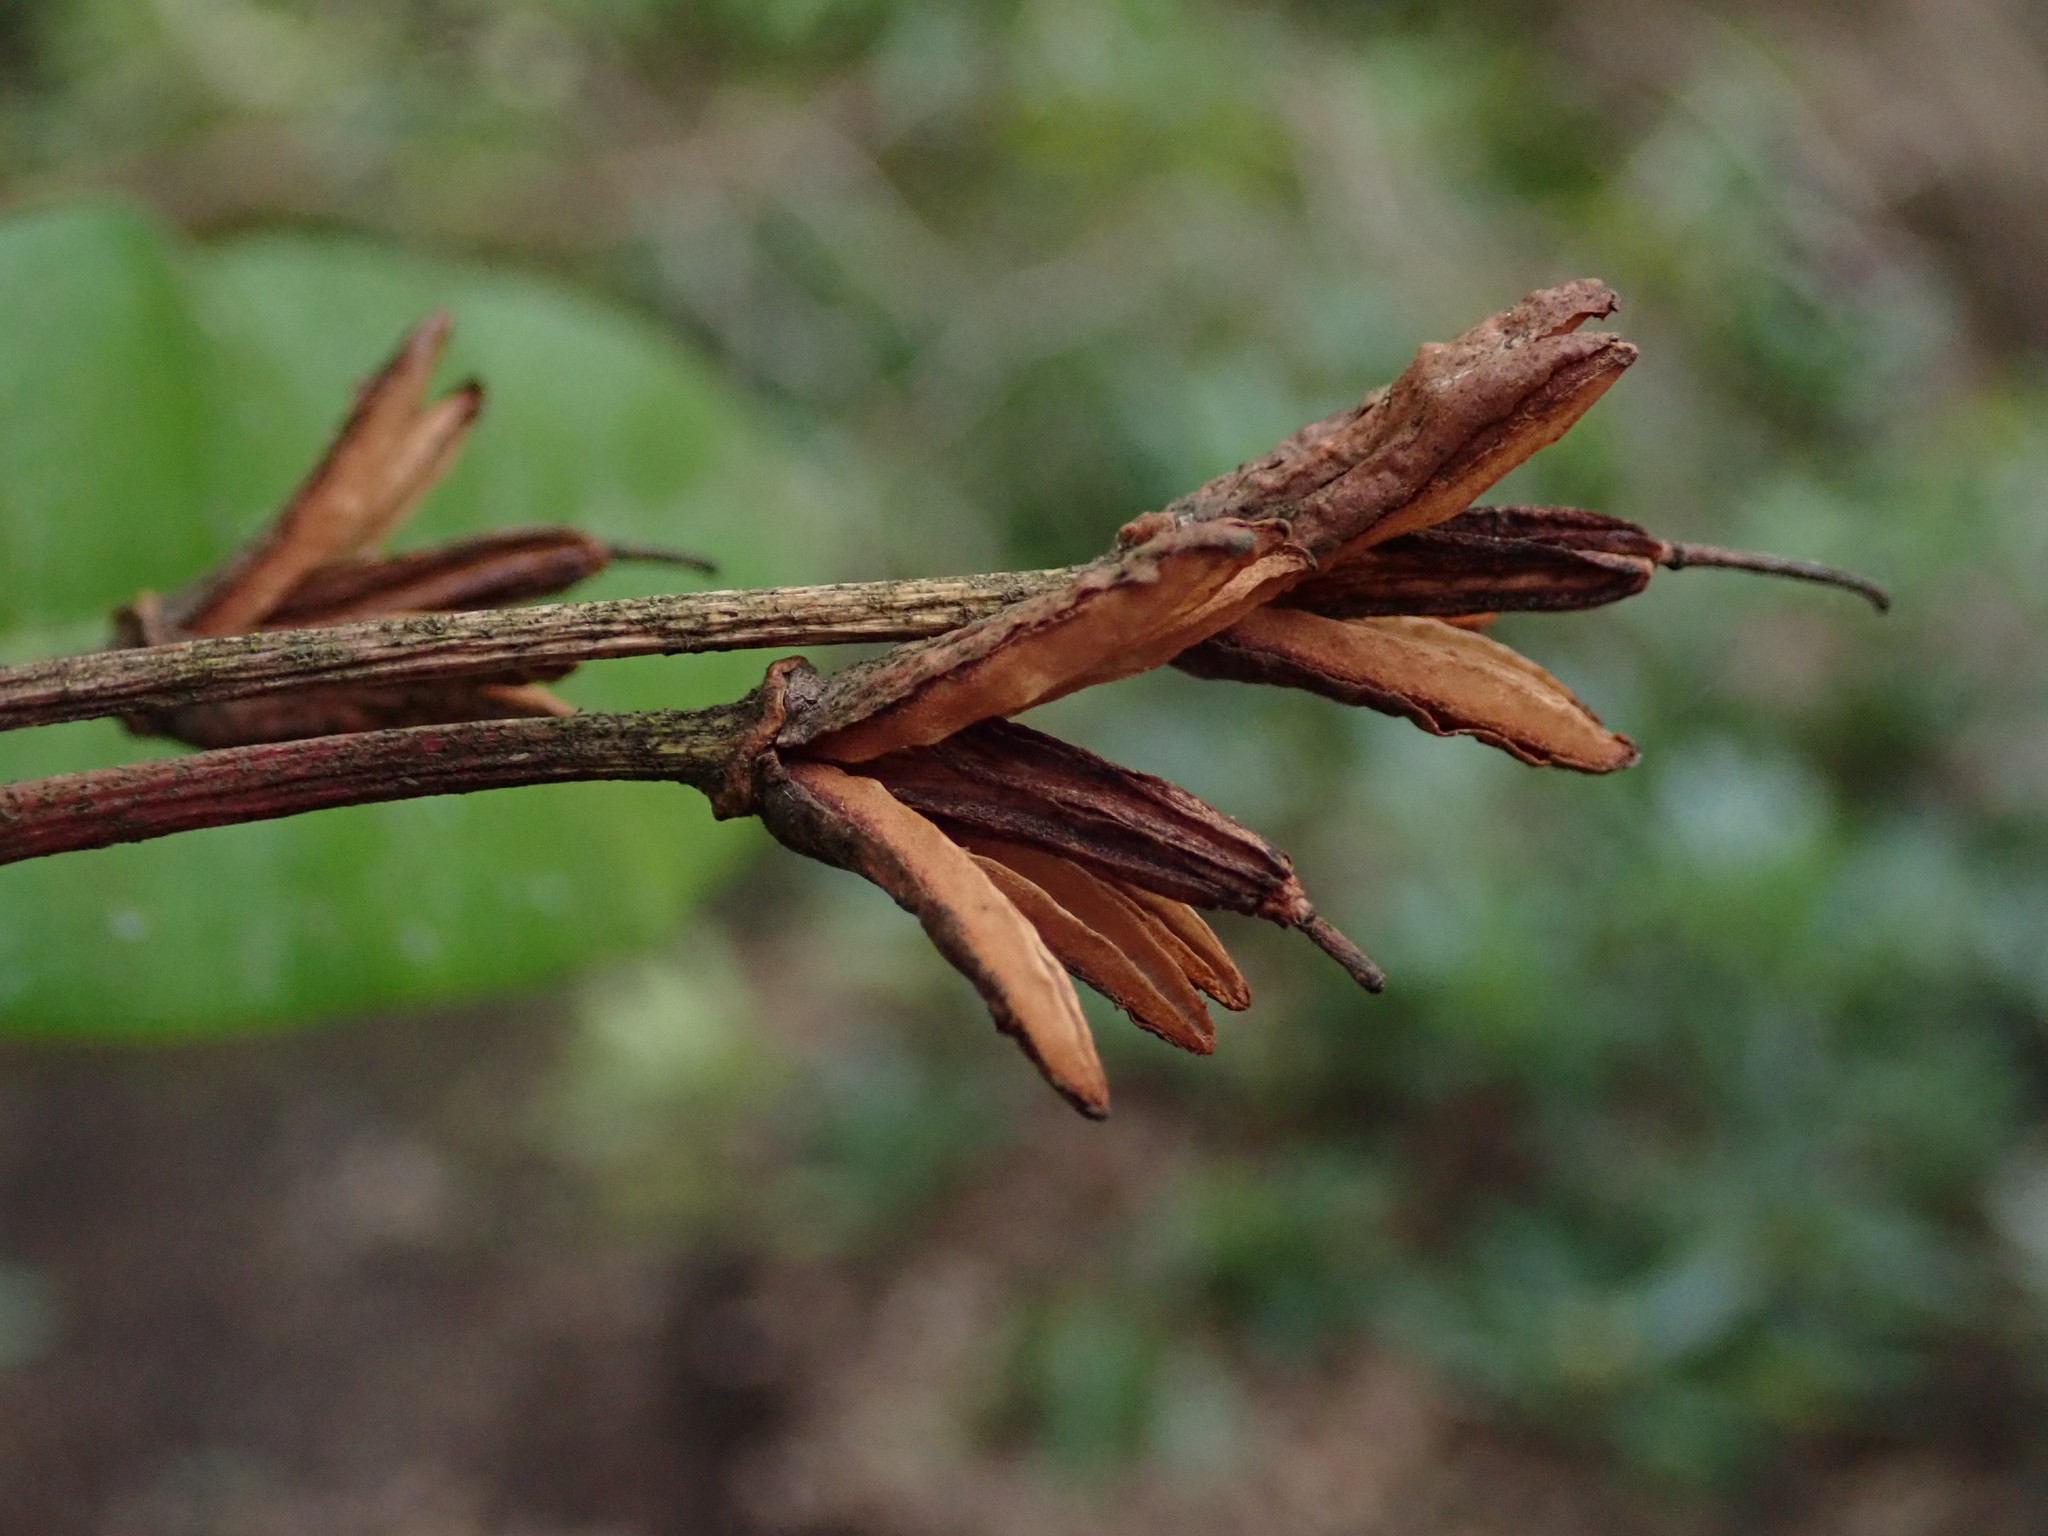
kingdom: Plantae
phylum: Tracheophyta
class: Magnoliopsida
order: Ericales
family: Ericaceae
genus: Rhododendron
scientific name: Rhododendron ponticum
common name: Rhododendron
